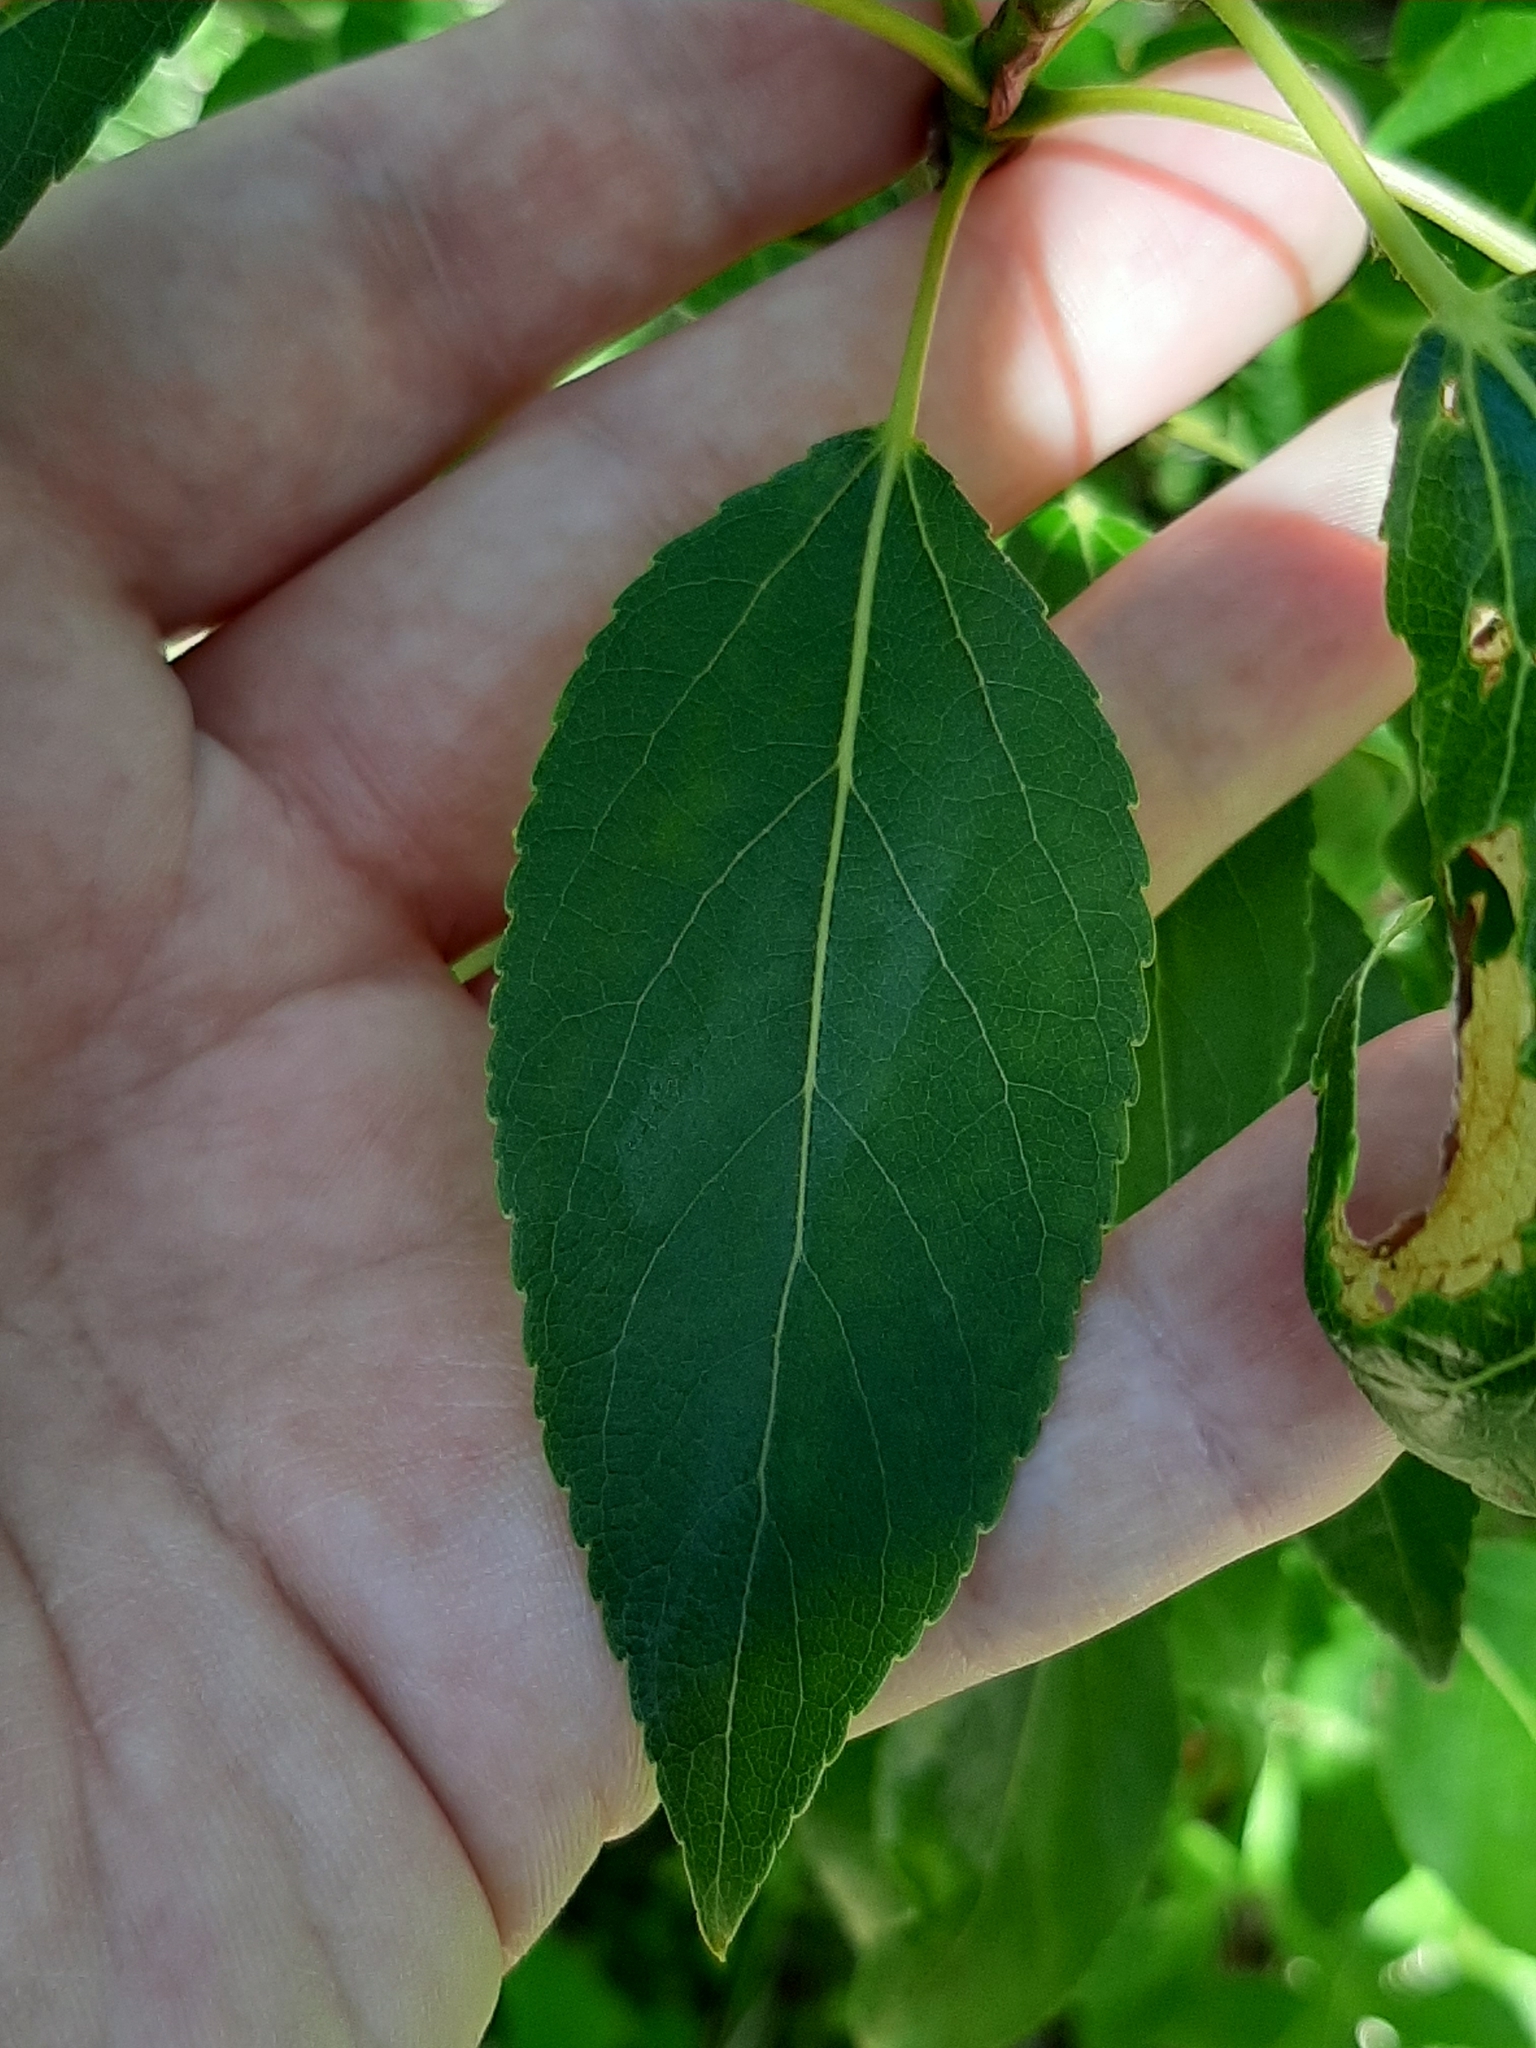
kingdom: Plantae
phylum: Tracheophyta
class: Magnoliopsida
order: Dipsacales
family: Caprifoliaceae
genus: Lonicera
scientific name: Lonicera dioica
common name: Limber honeysuckle
